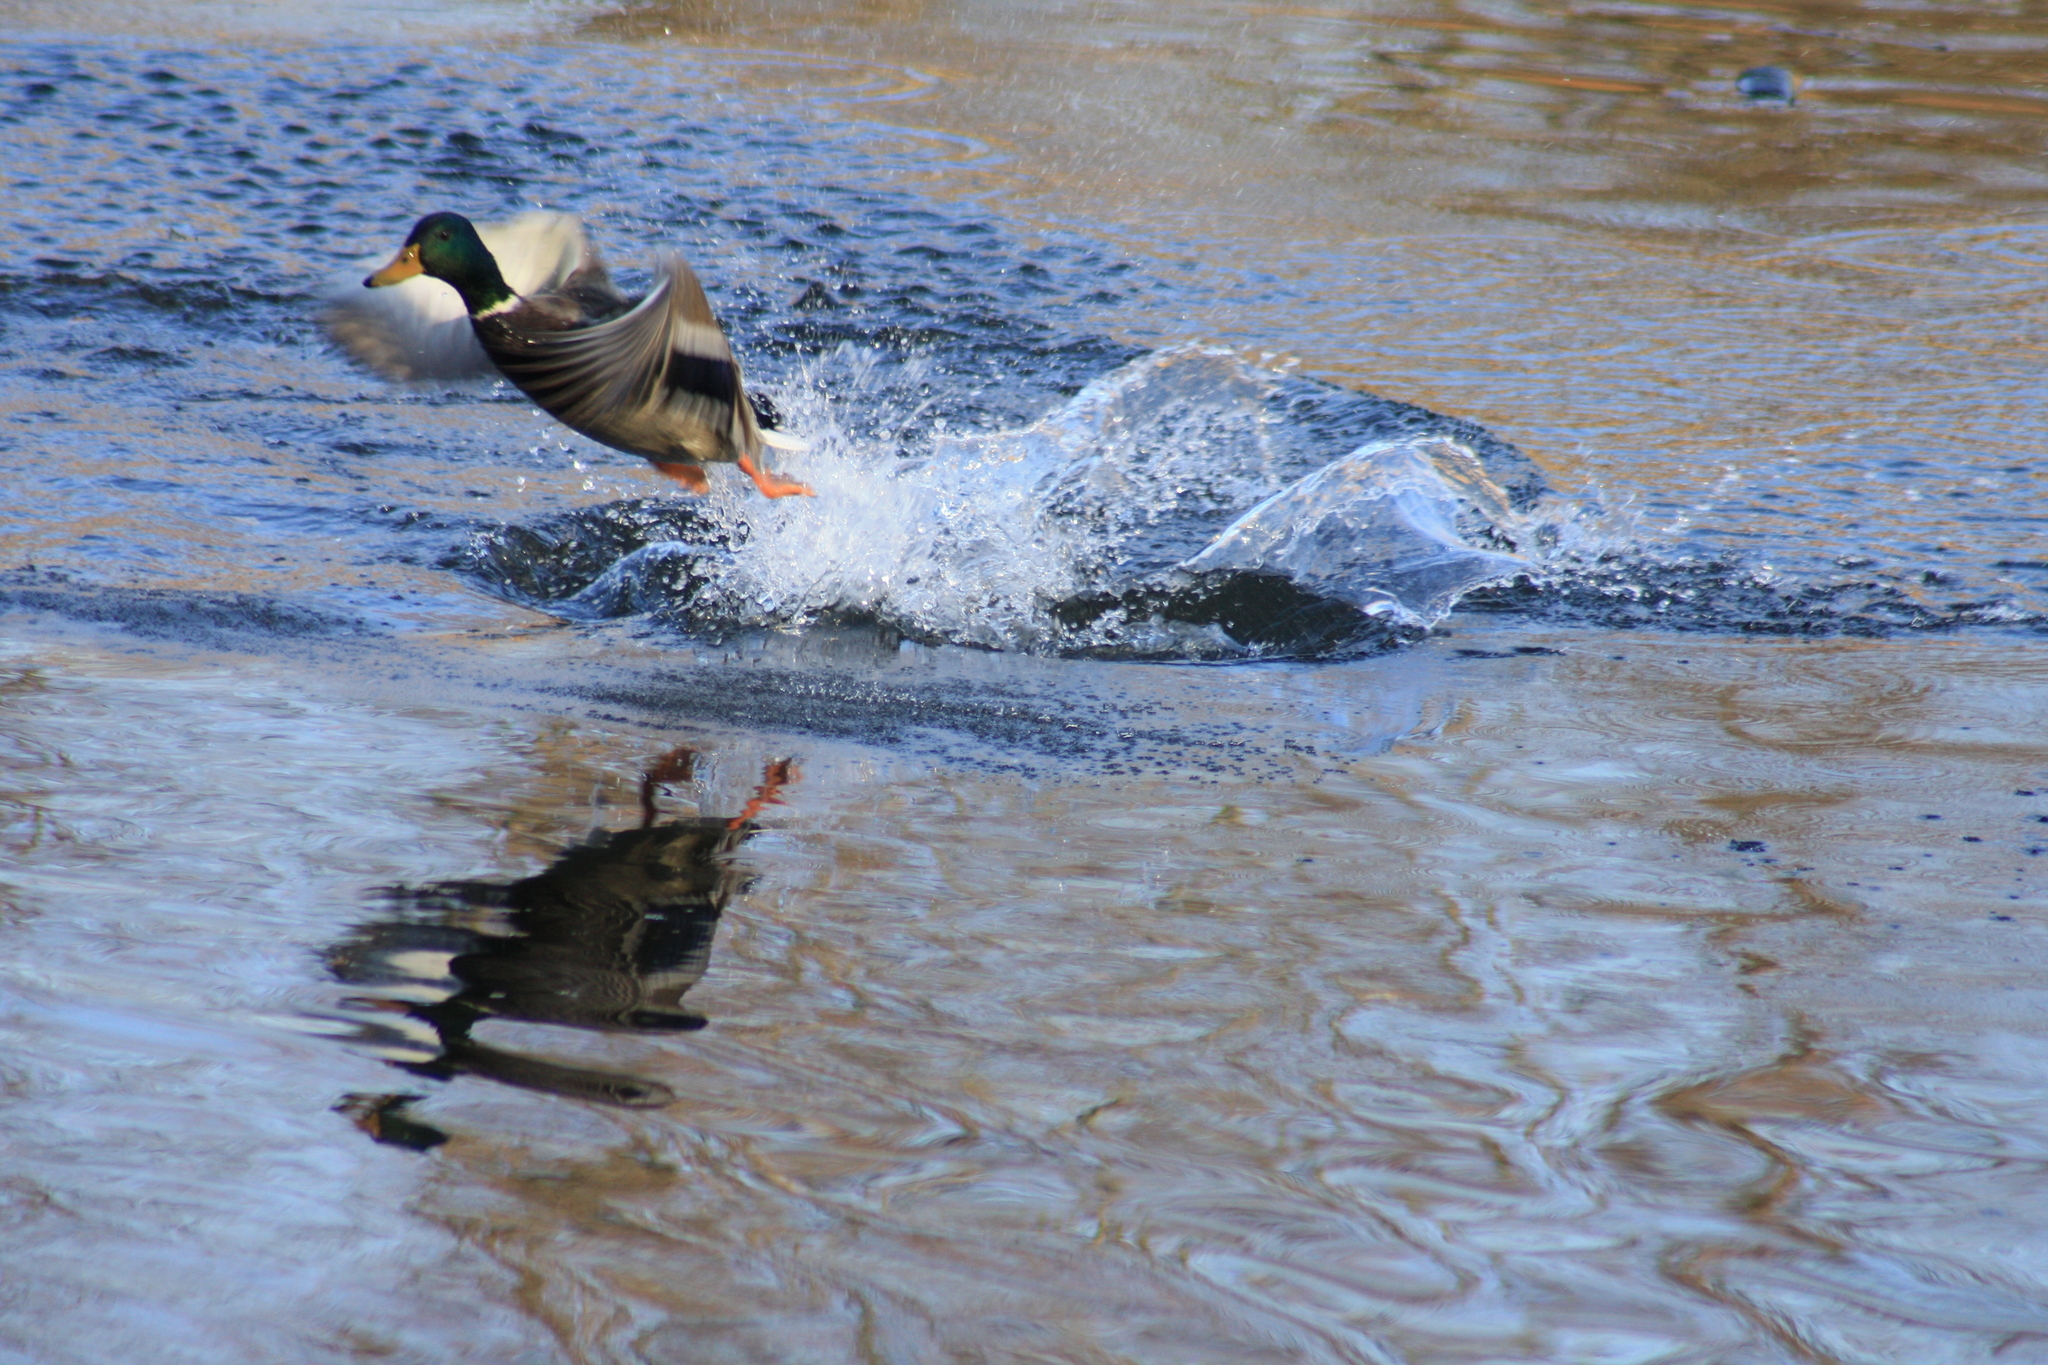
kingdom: Animalia
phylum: Chordata
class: Aves
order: Anseriformes
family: Anatidae
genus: Anas
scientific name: Anas platyrhynchos
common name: Mallard
